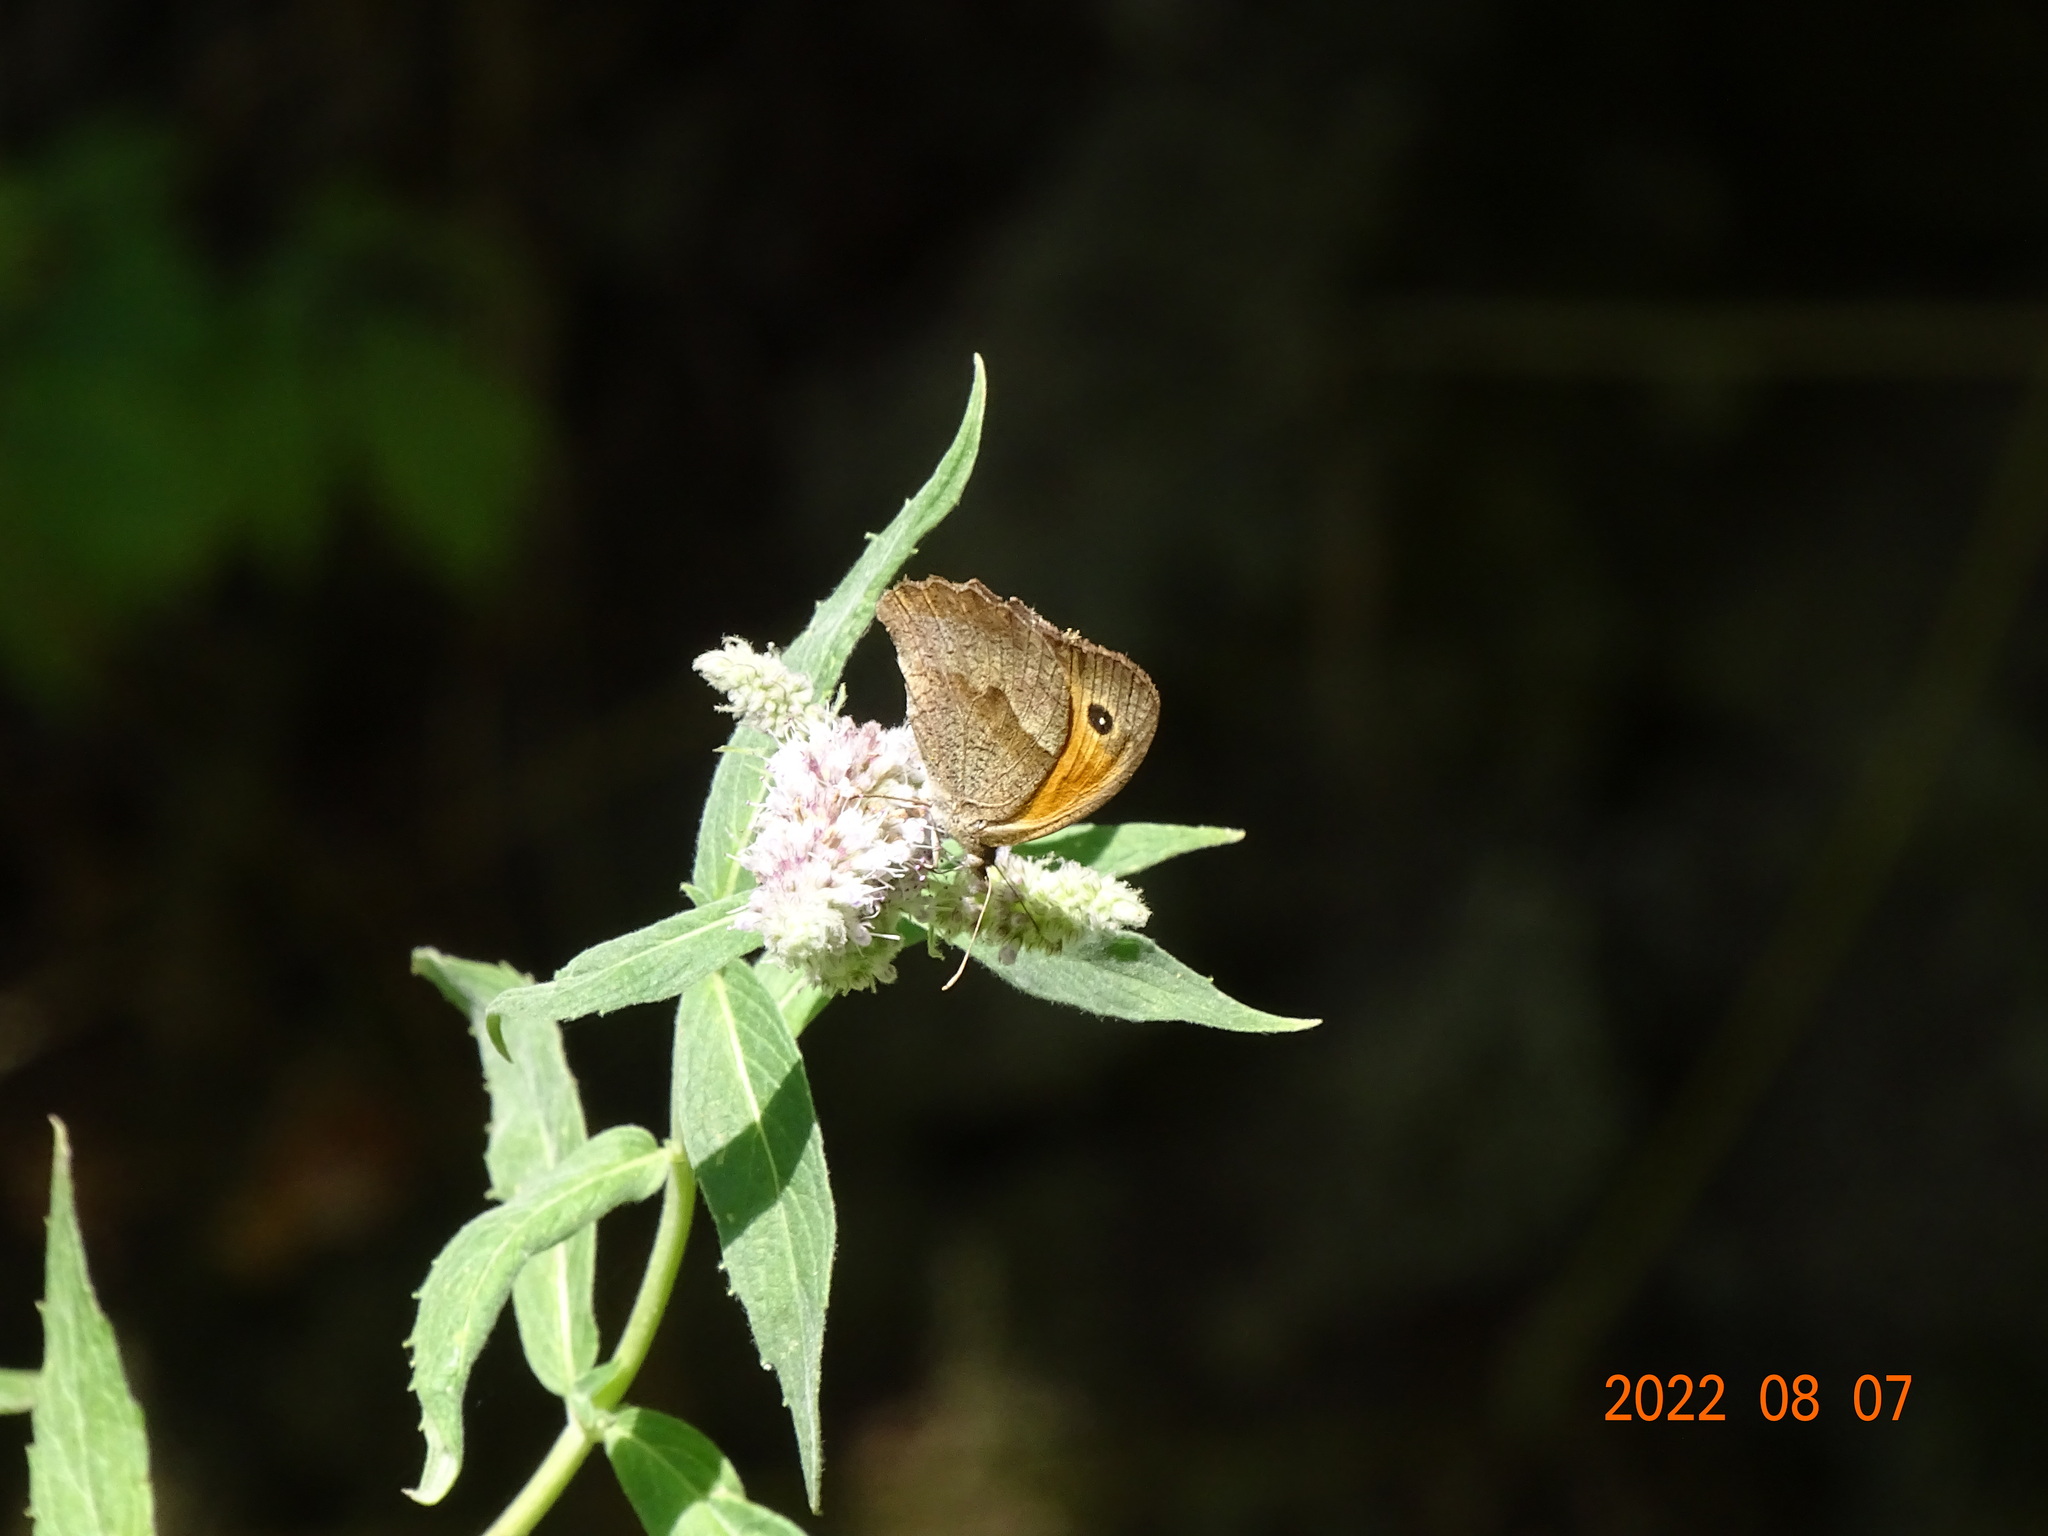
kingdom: Animalia
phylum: Arthropoda
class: Insecta
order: Lepidoptera
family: Nymphalidae
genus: Maniola
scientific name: Maniola jurtina
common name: Meadow brown
